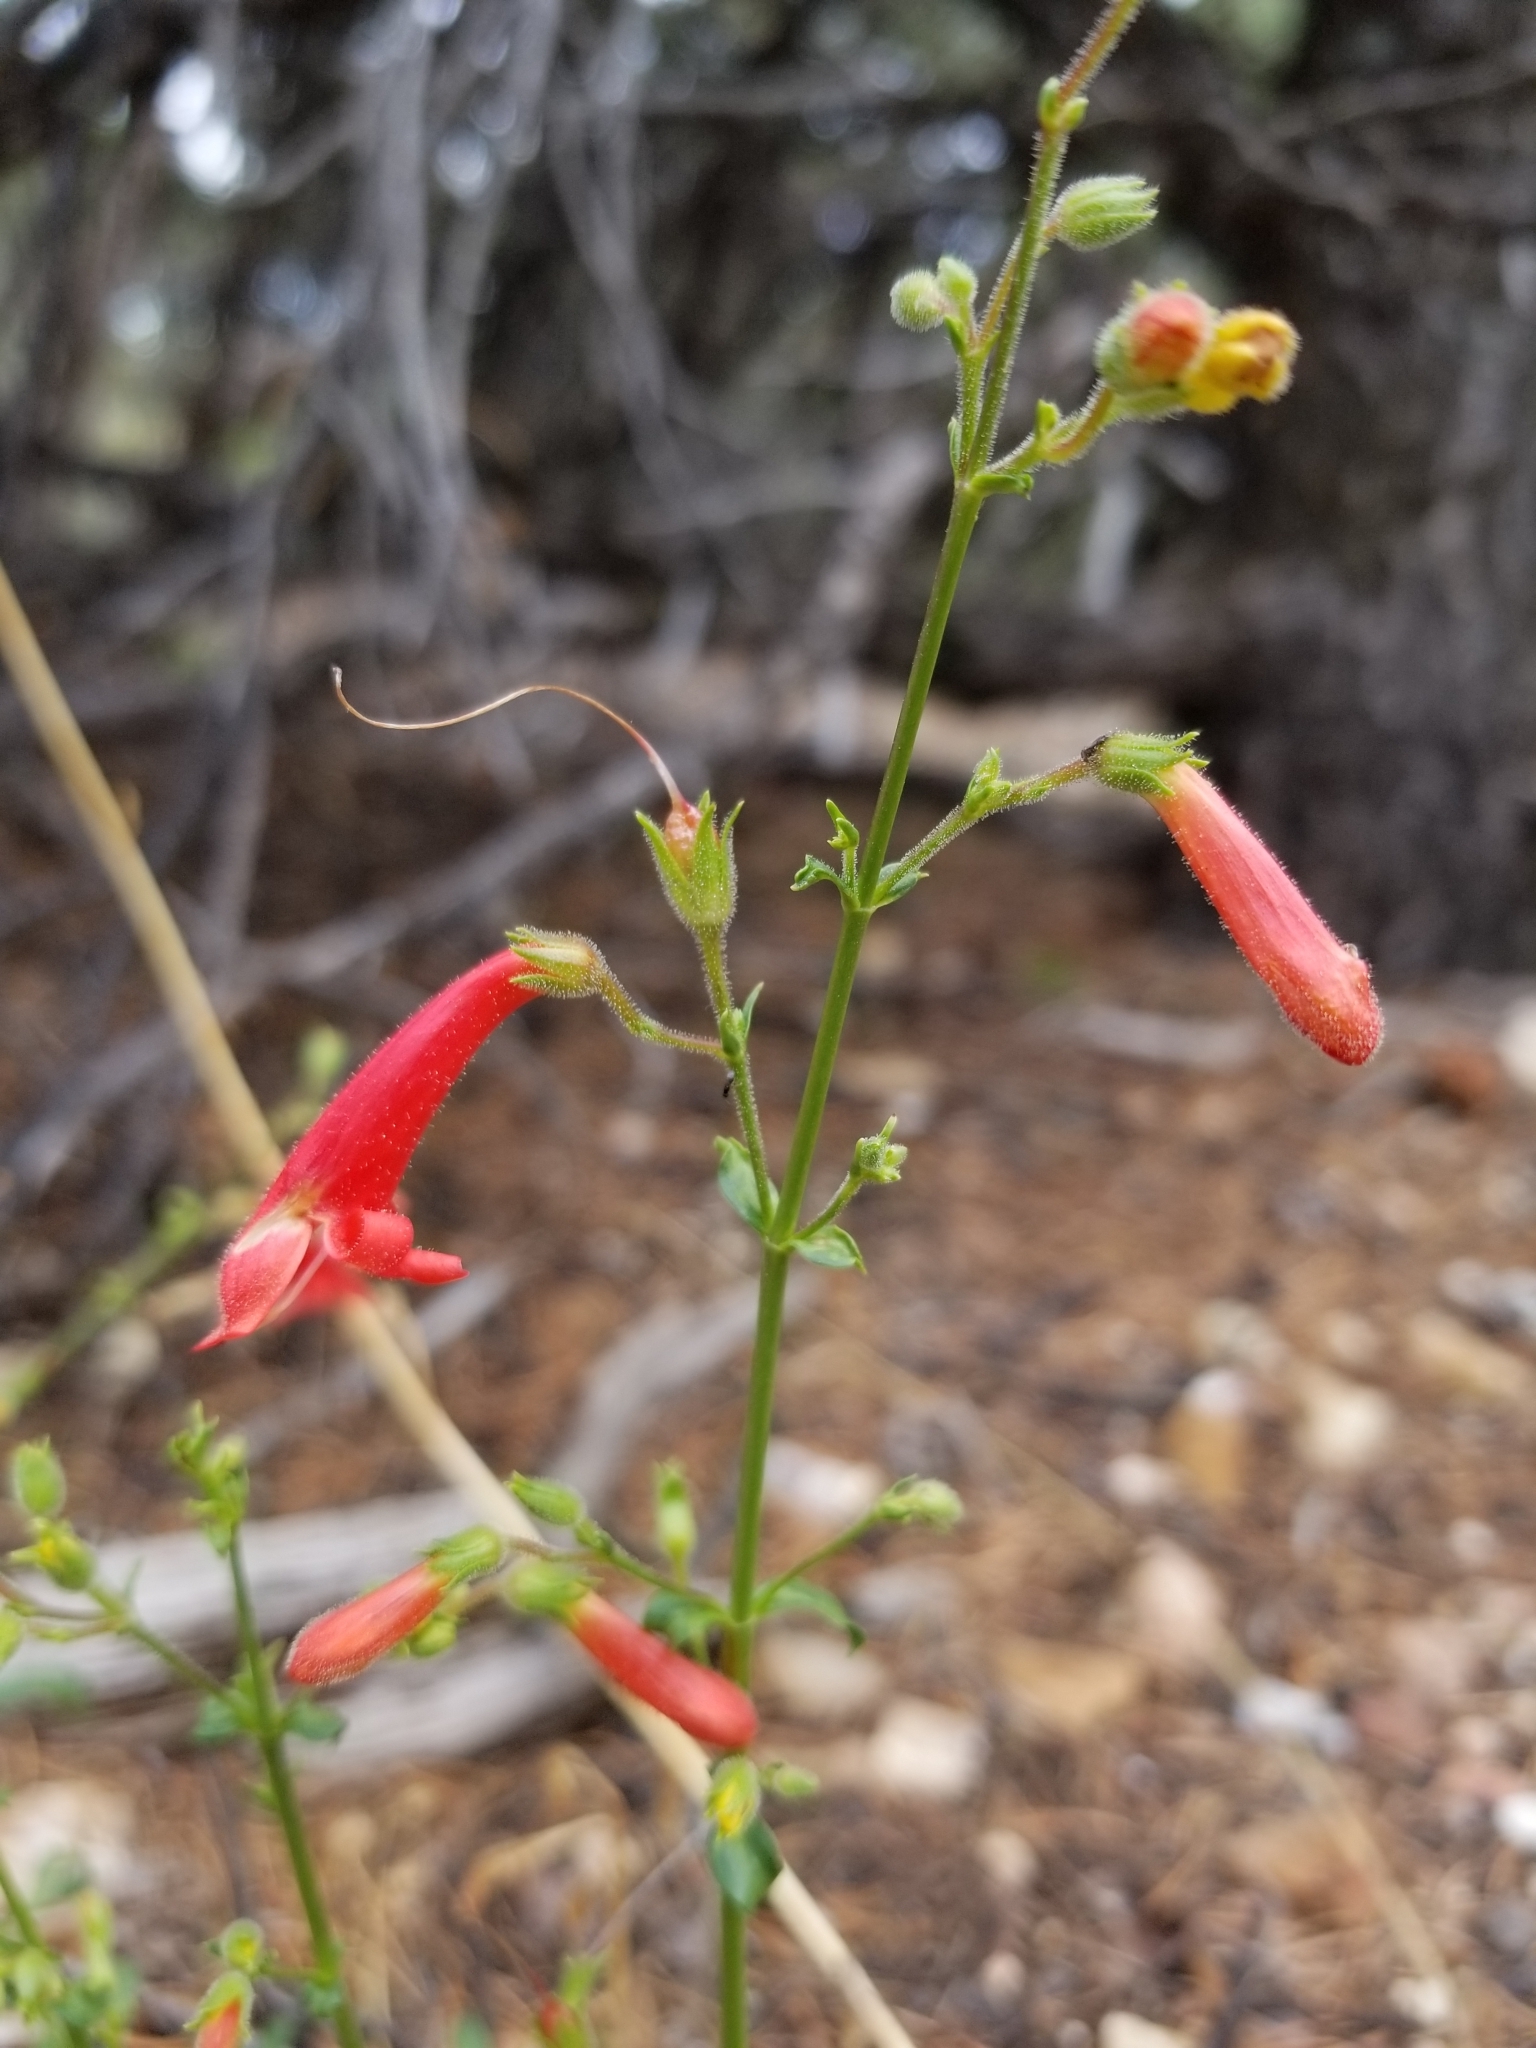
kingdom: Plantae
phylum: Tracheophyta
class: Magnoliopsida
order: Lamiales
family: Plantaginaceae
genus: Penstemon
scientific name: Penstemon barbatus
